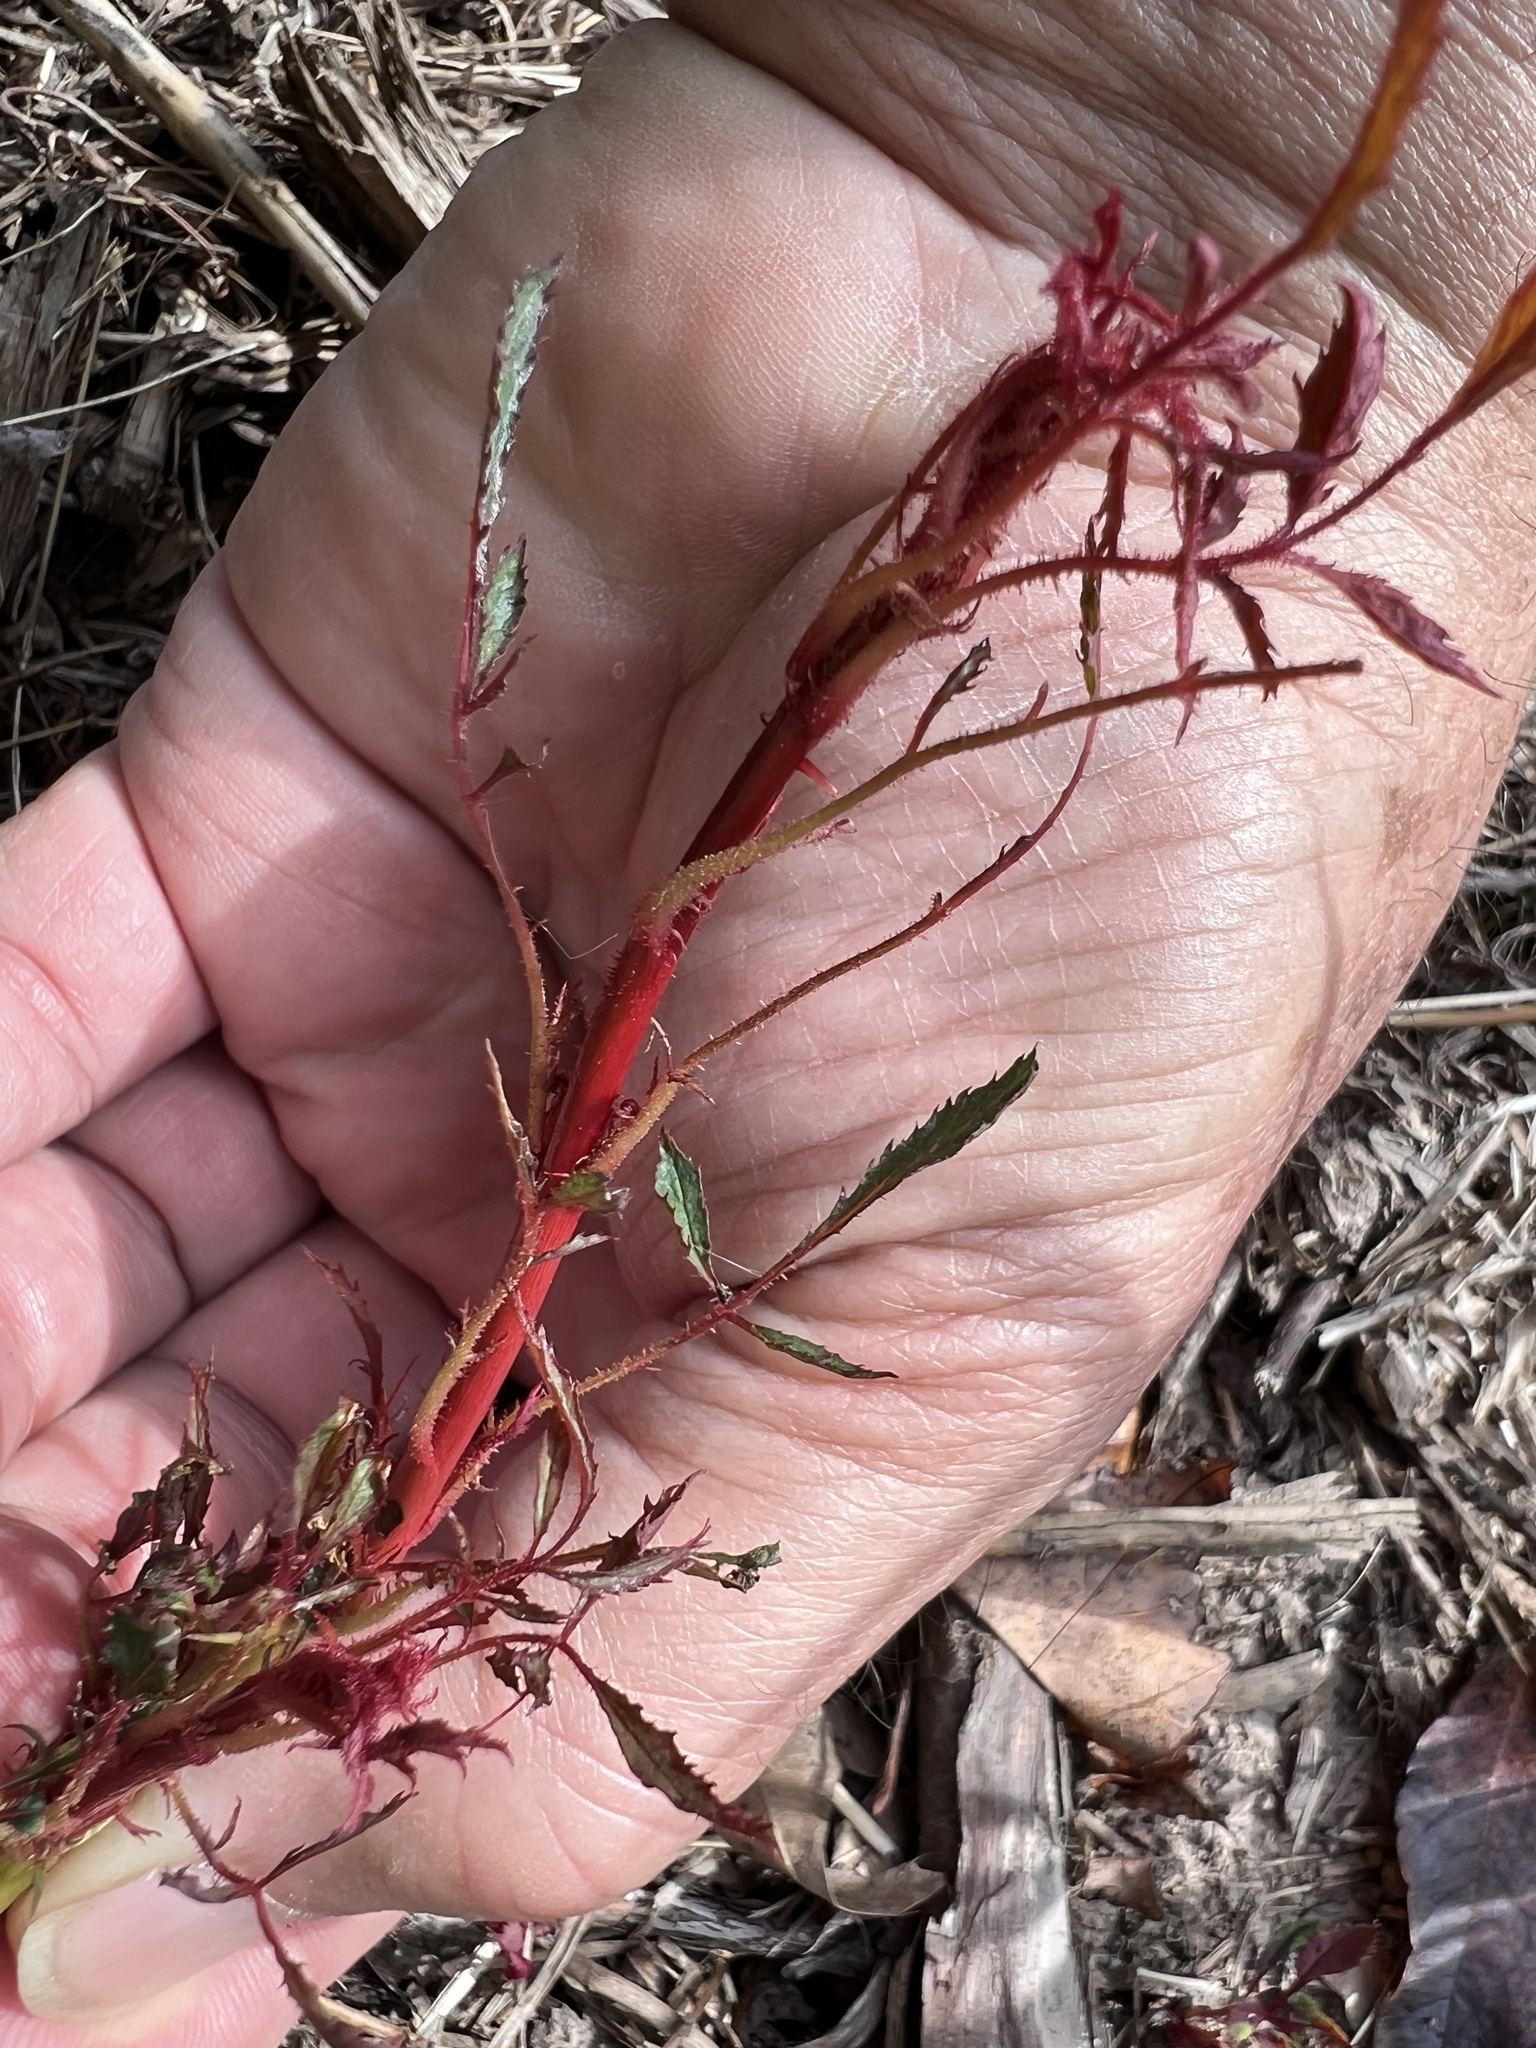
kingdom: Viruses
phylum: Negarnaviricota
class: Ellioviricetes
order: Bunyavirales
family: Fimoviridae
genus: Emaravirus
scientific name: Emaravirus rosae
